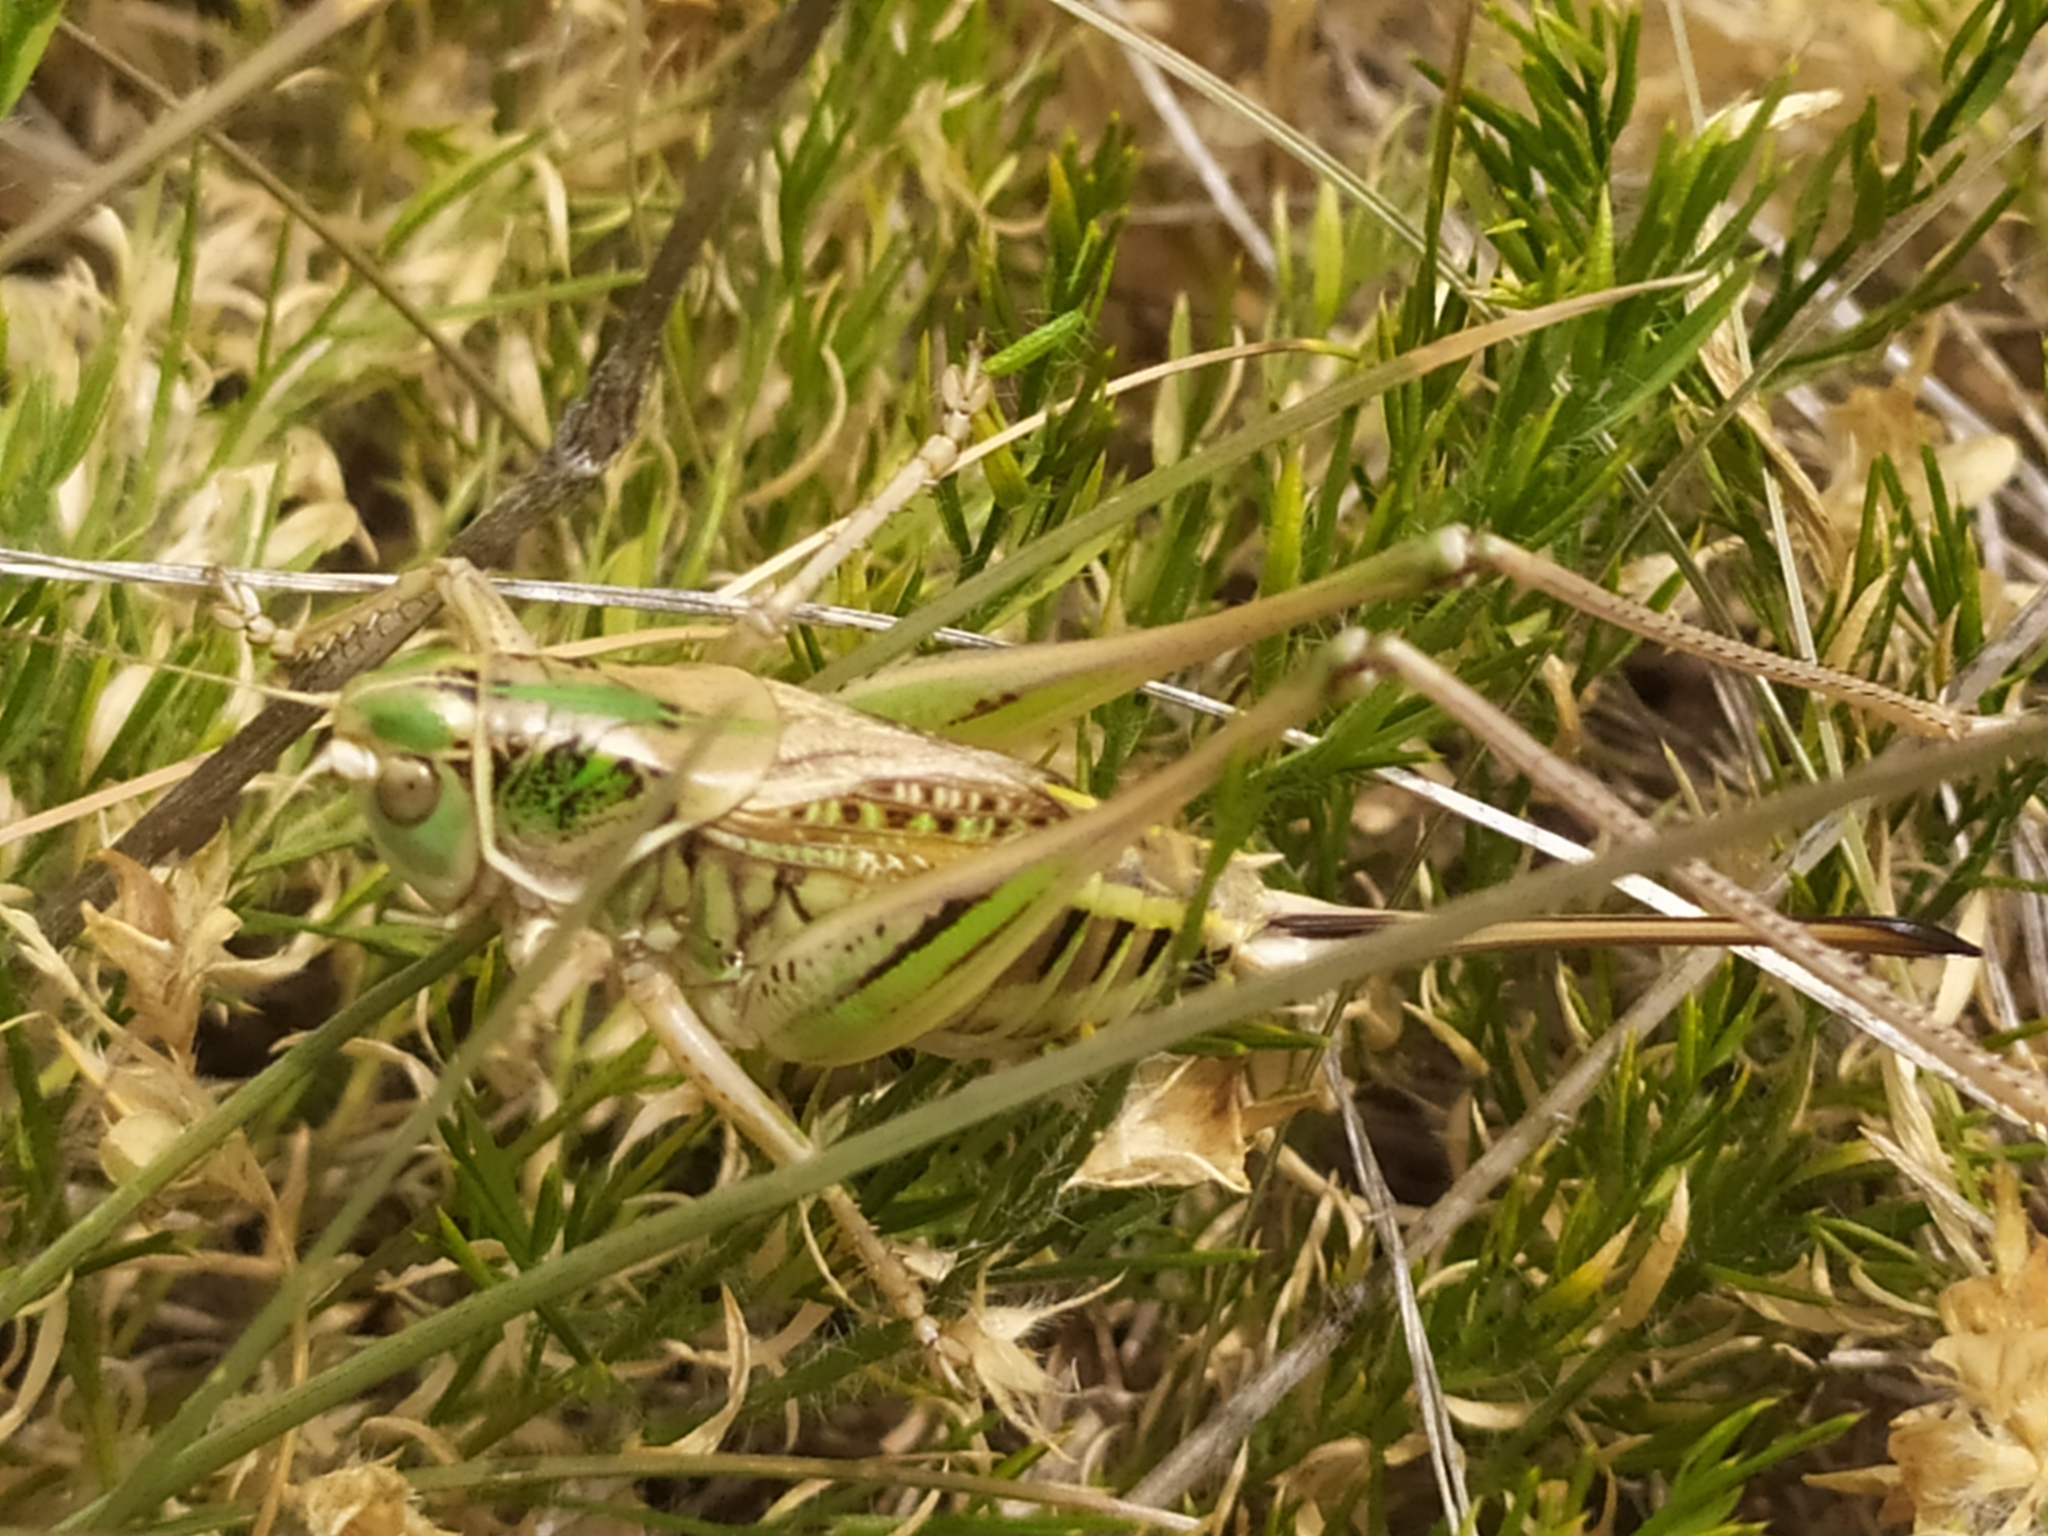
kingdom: Animalia
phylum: Arthropoda
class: Insecta
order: Orthoptera
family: Tettigoniidae
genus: Gampsocleis
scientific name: Gampsocleis abbreviata
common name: Short-winged spiny bush-cricket
